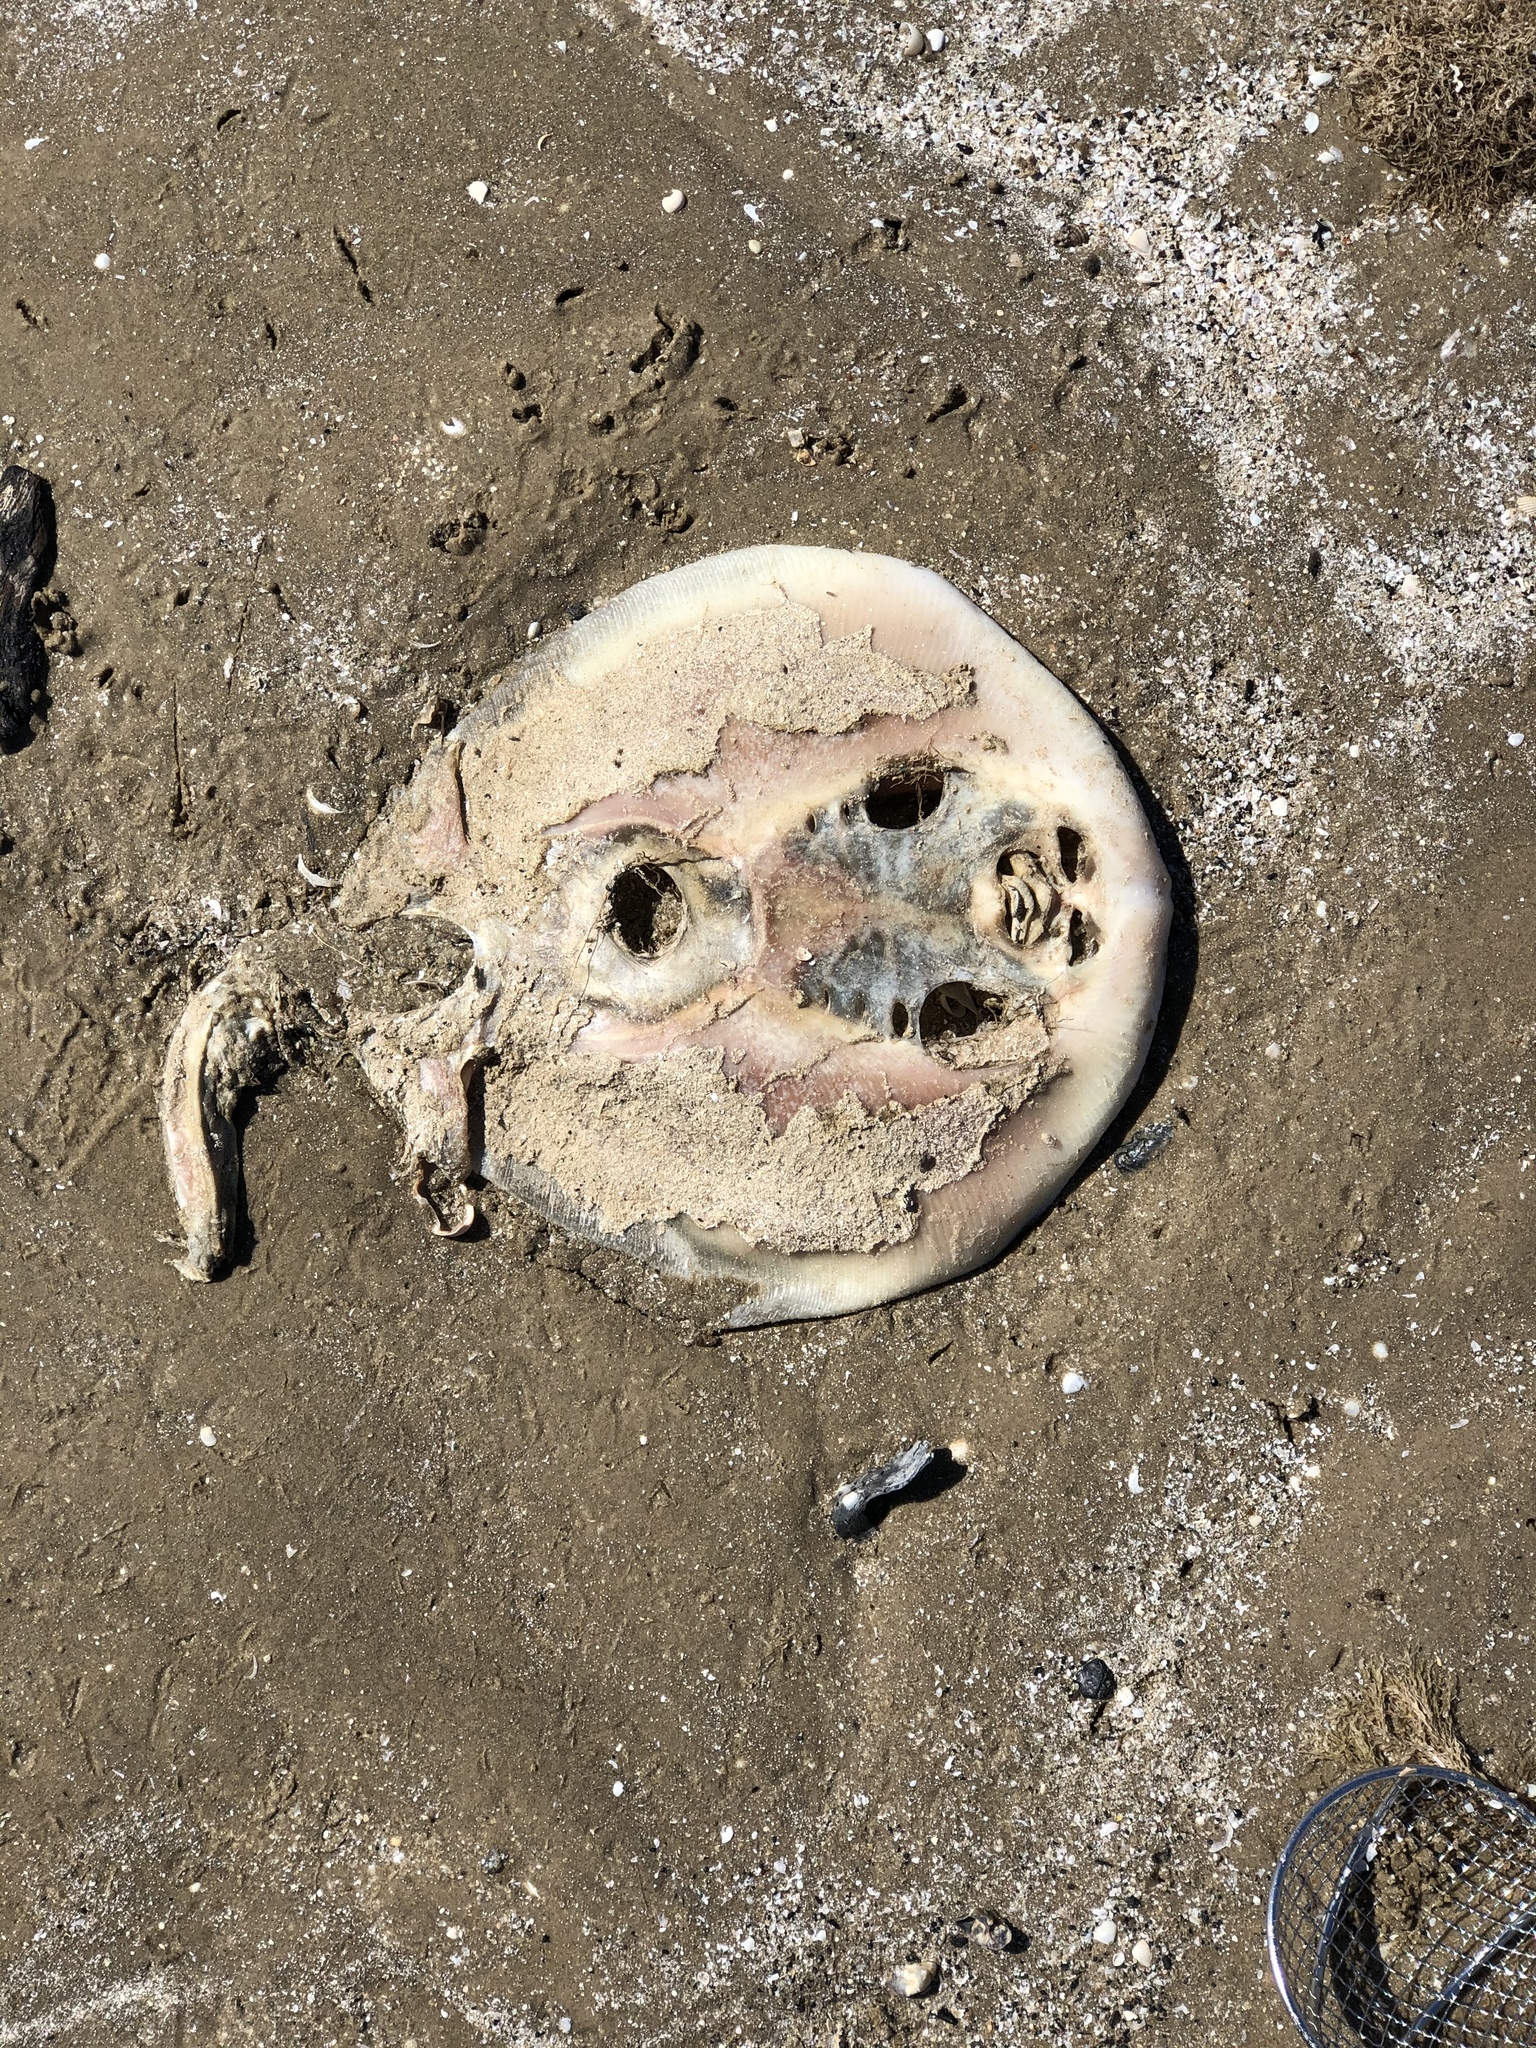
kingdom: Animalia
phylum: Chordata
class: Elasmobranchii
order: Myliobatiformes
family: Dasyatidae
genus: Hypanus
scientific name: Hypanus sabinus
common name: Atlantic stingray
